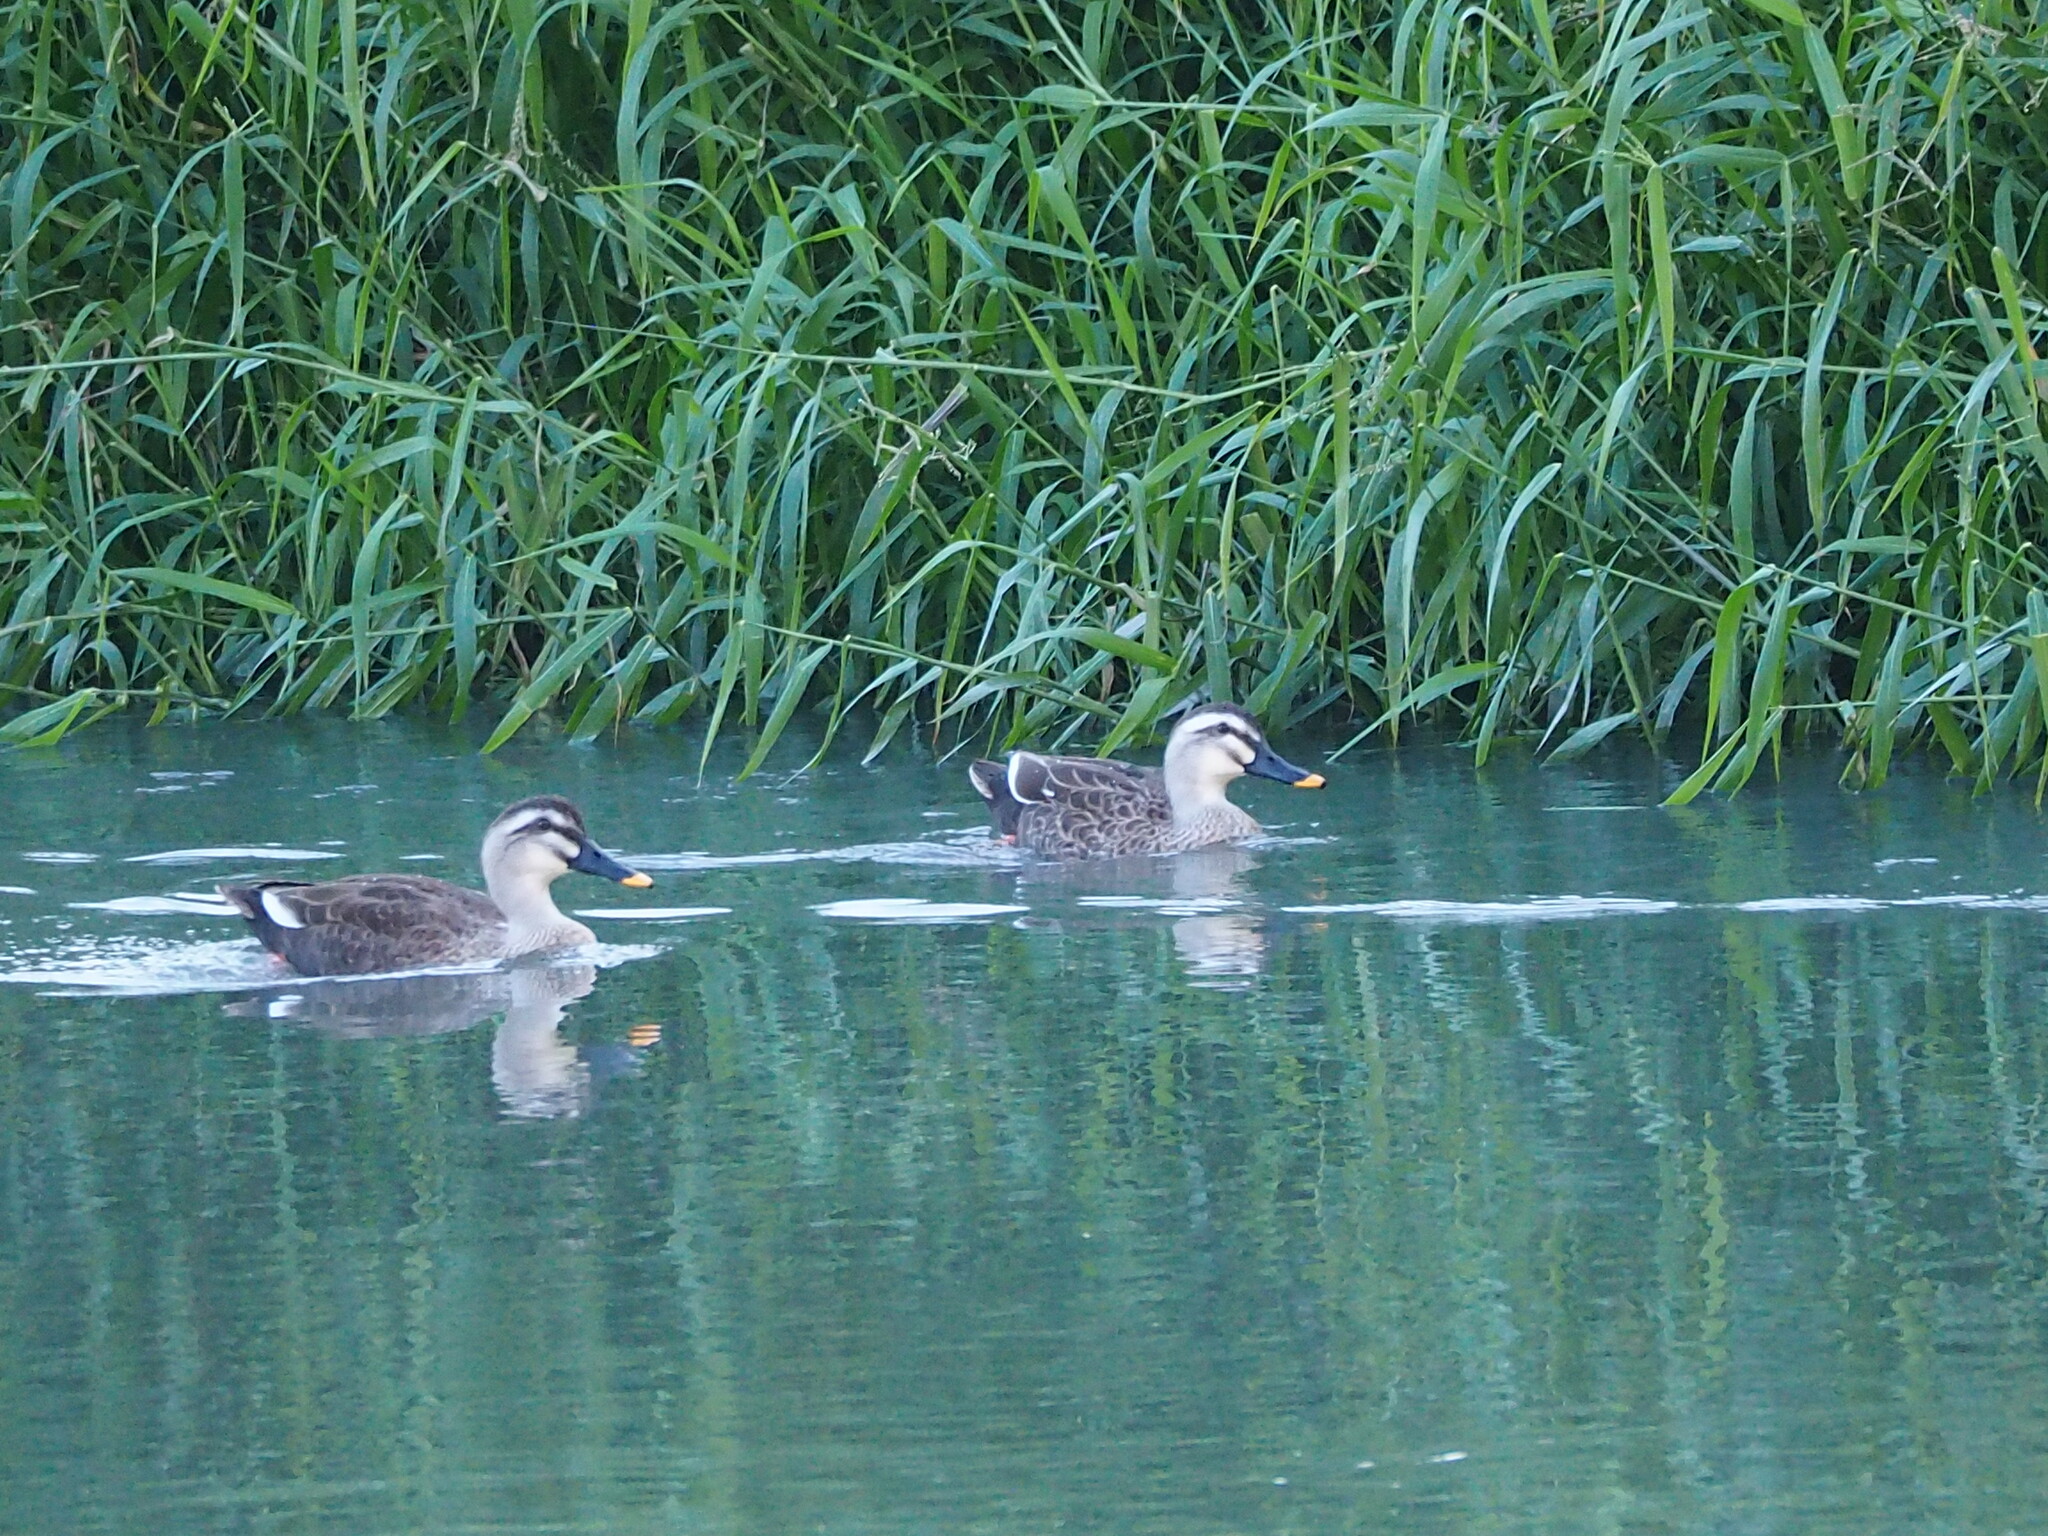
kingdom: Animalia
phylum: Chordata
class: Aves
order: Anseriformes
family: Anatidae
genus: Anas
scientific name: Anas zonorhyncha
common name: Eastern spot-billed duck
